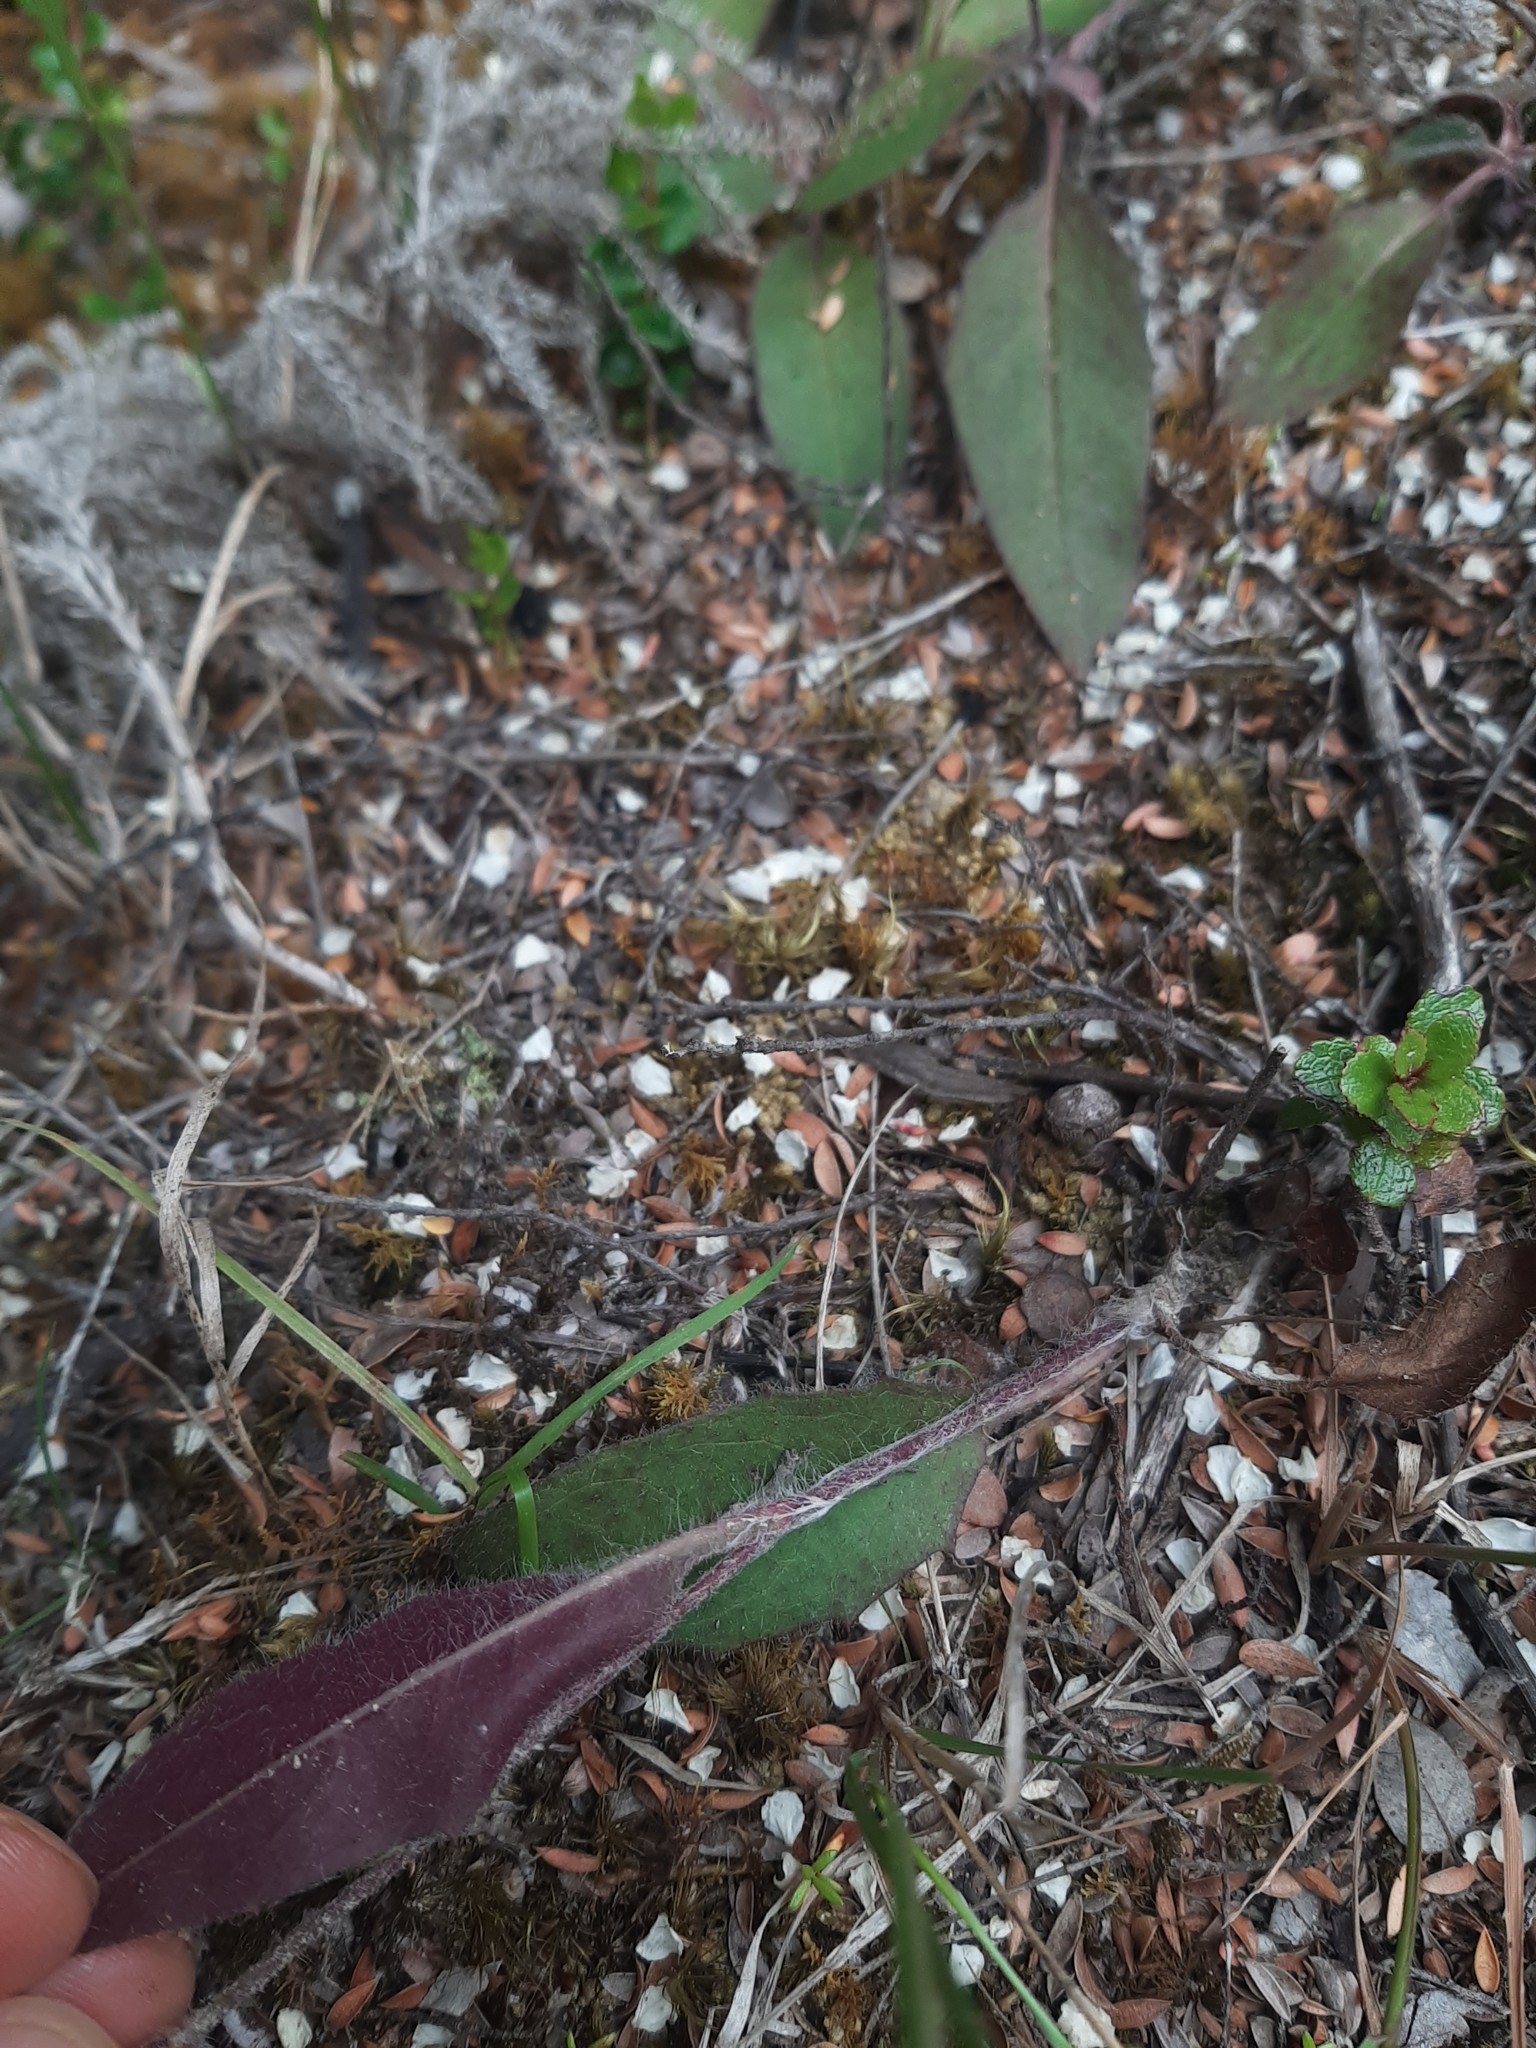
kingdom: Plantae
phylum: Tracheophyta
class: Magnoliopsida
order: Asterales
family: Asteraceae
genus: Hieracium
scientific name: Hieracium lepidulum
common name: Irregular-toothed hawkweed
